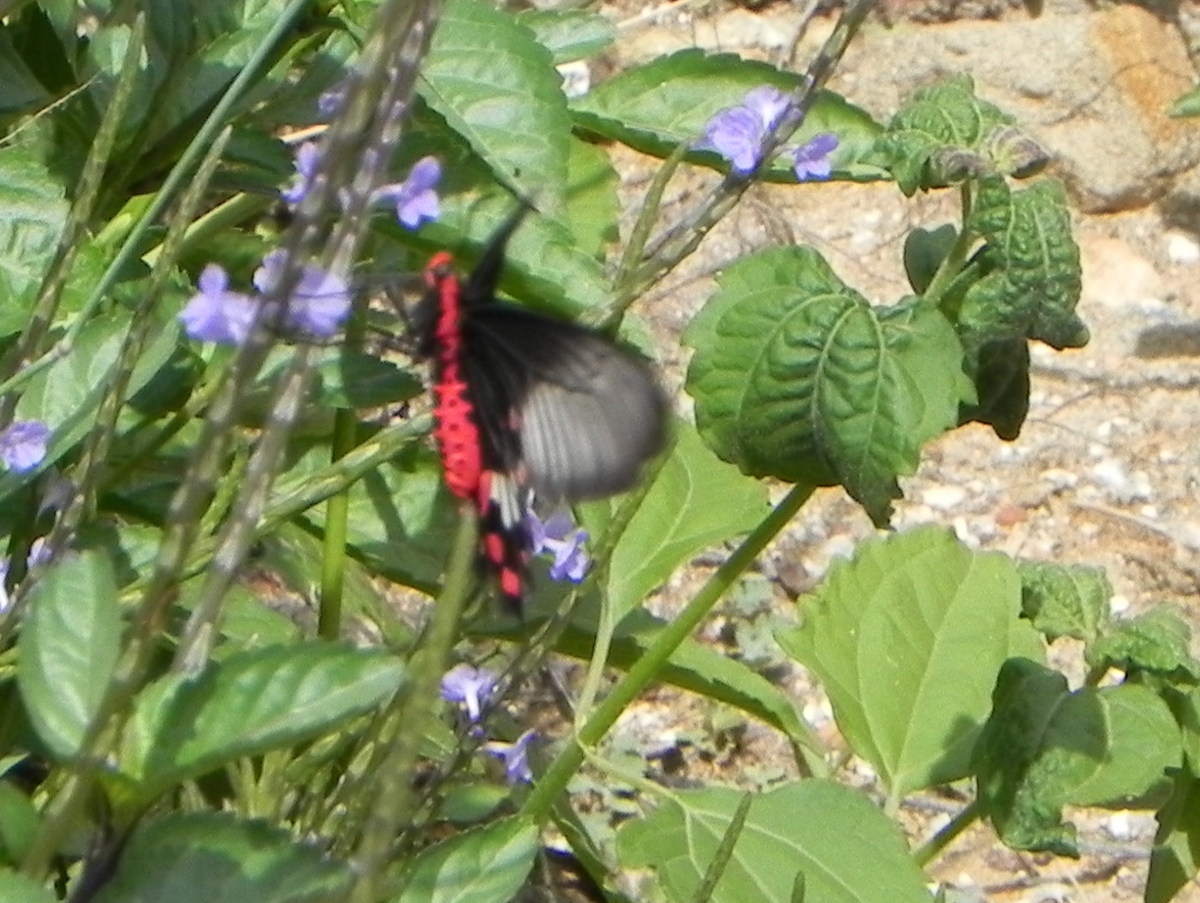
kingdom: Animalia
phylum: Arthropoda
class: Insecta
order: Lepidoptera
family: Papilionidae
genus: Pachliopta
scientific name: Pachliopta aristolochiae
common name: Common rose
